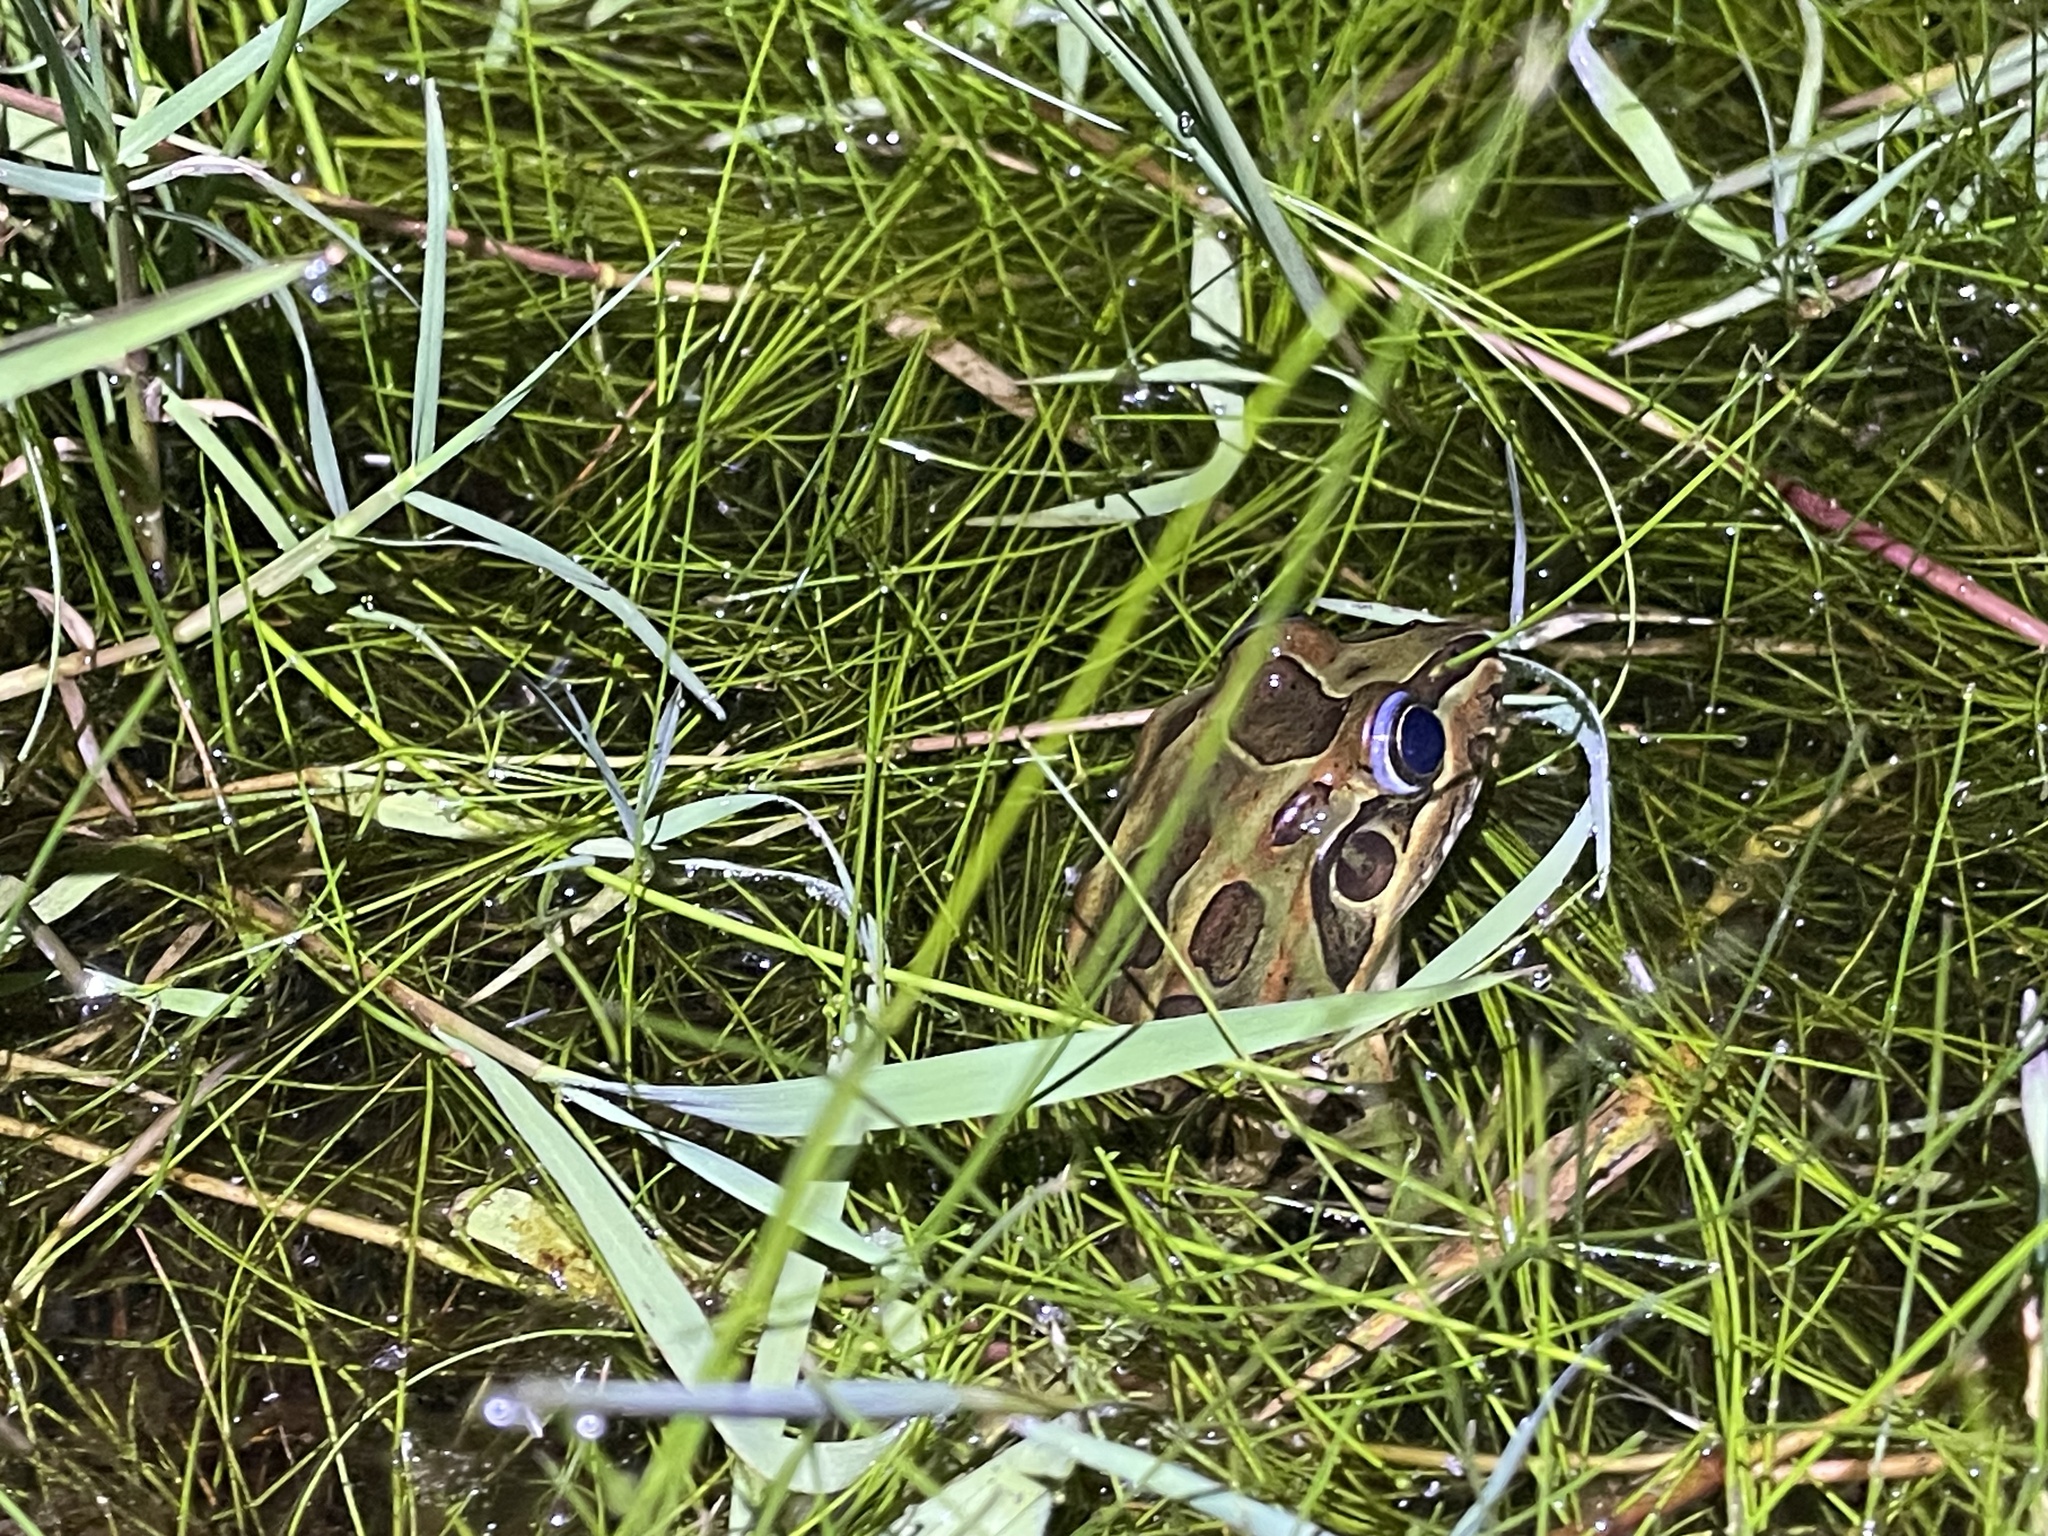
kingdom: Animalia
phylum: Chordata
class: Amphibia
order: Anura
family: Leptodactylidae
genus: Leptodactylus
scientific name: Leptodactylus luctator
